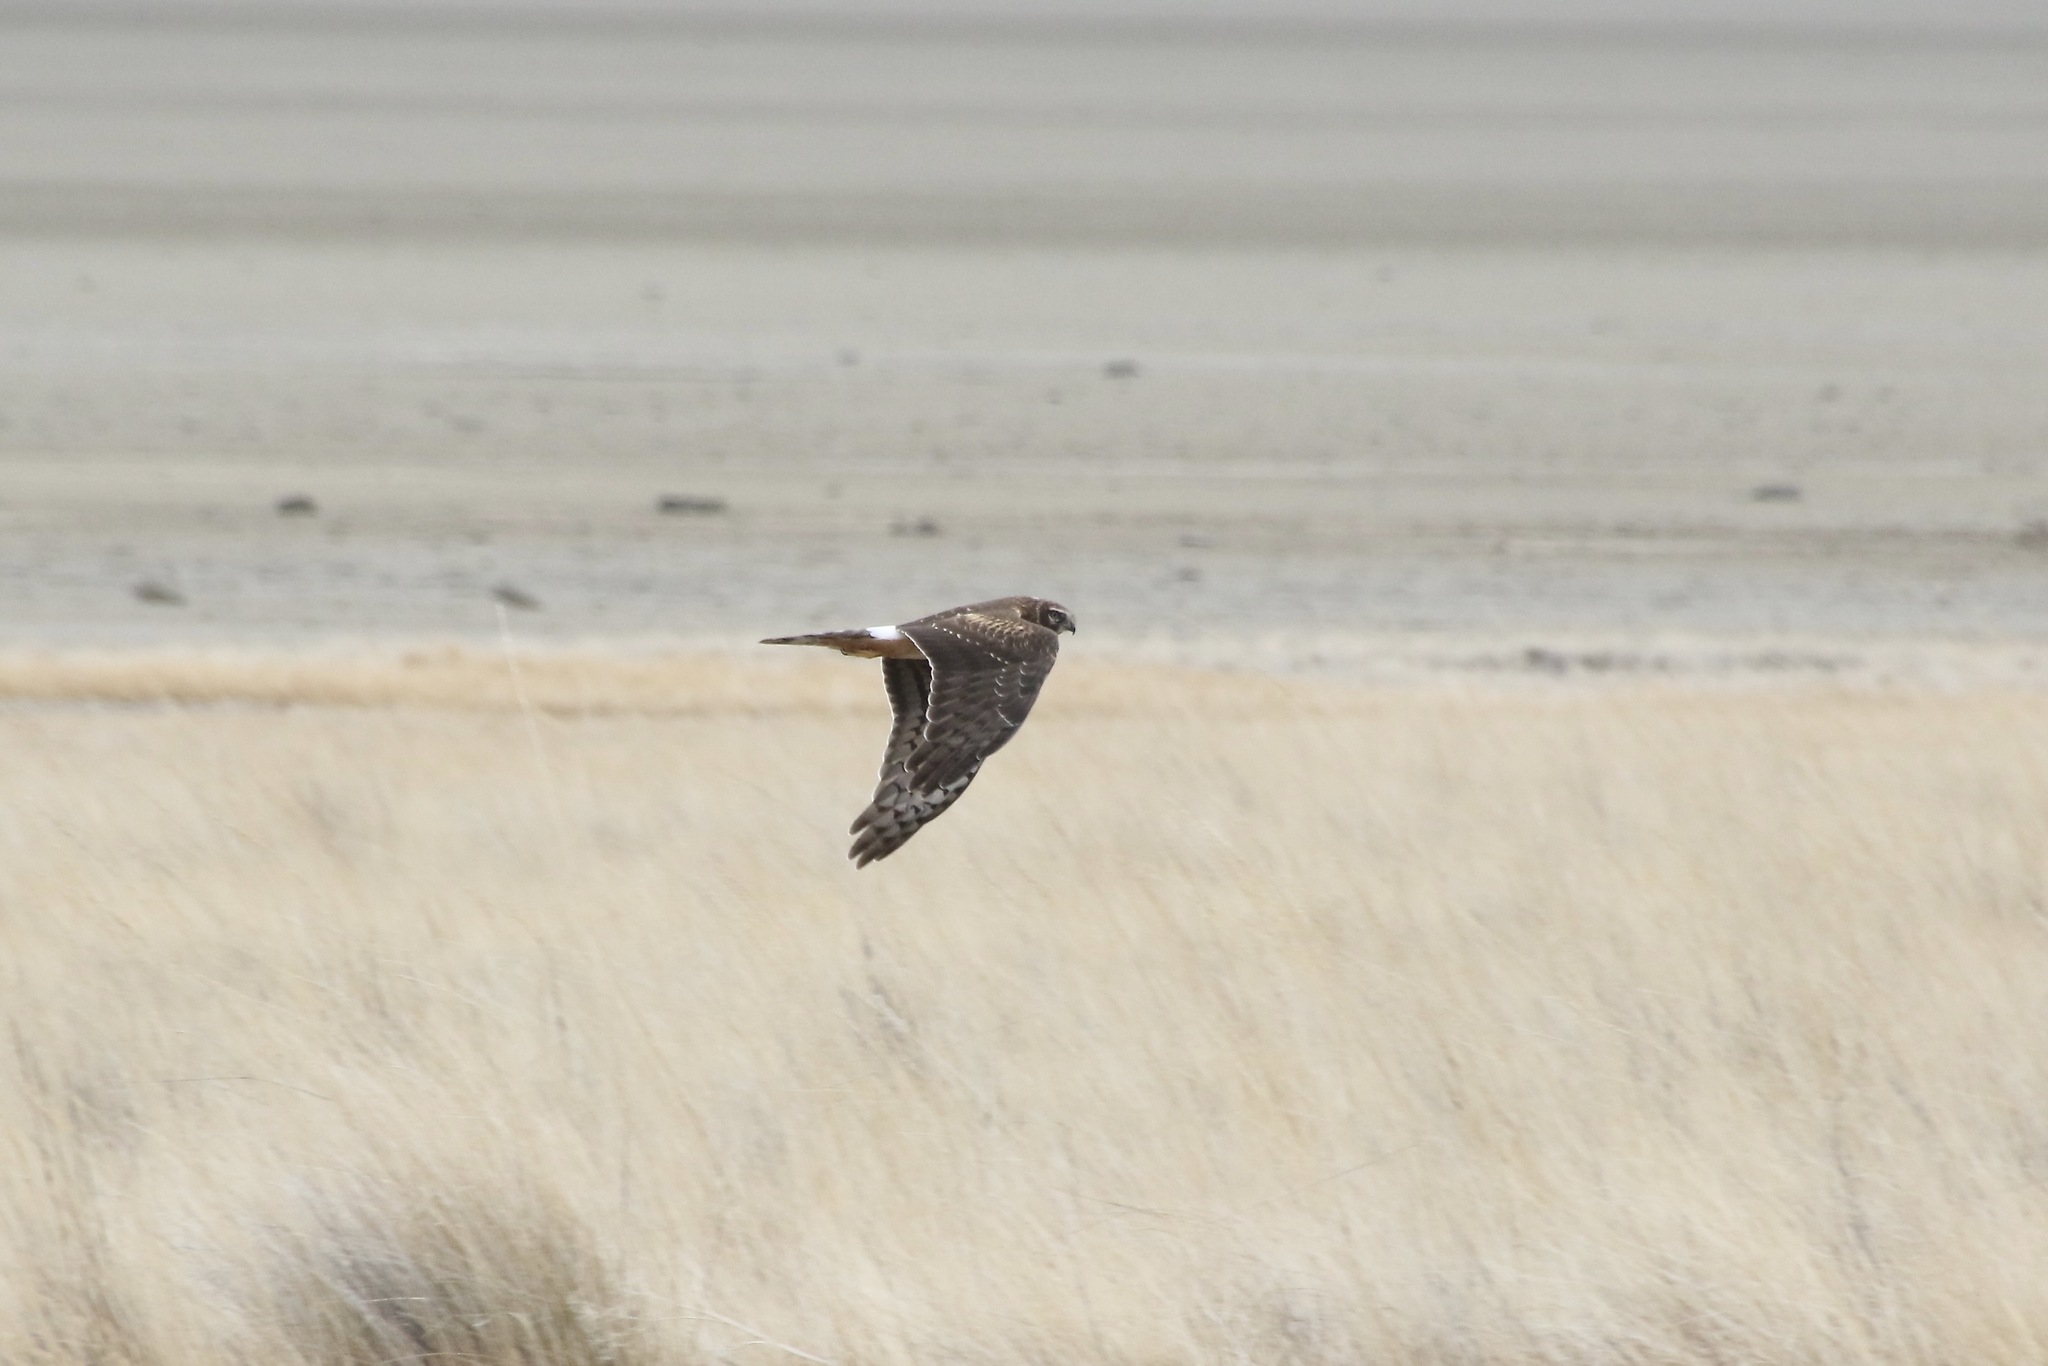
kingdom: Animalia
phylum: Chordata
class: Aves
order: Accipitriformes
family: Accipitridae
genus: Circus
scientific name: Circus cyaneus
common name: Hen harrier
